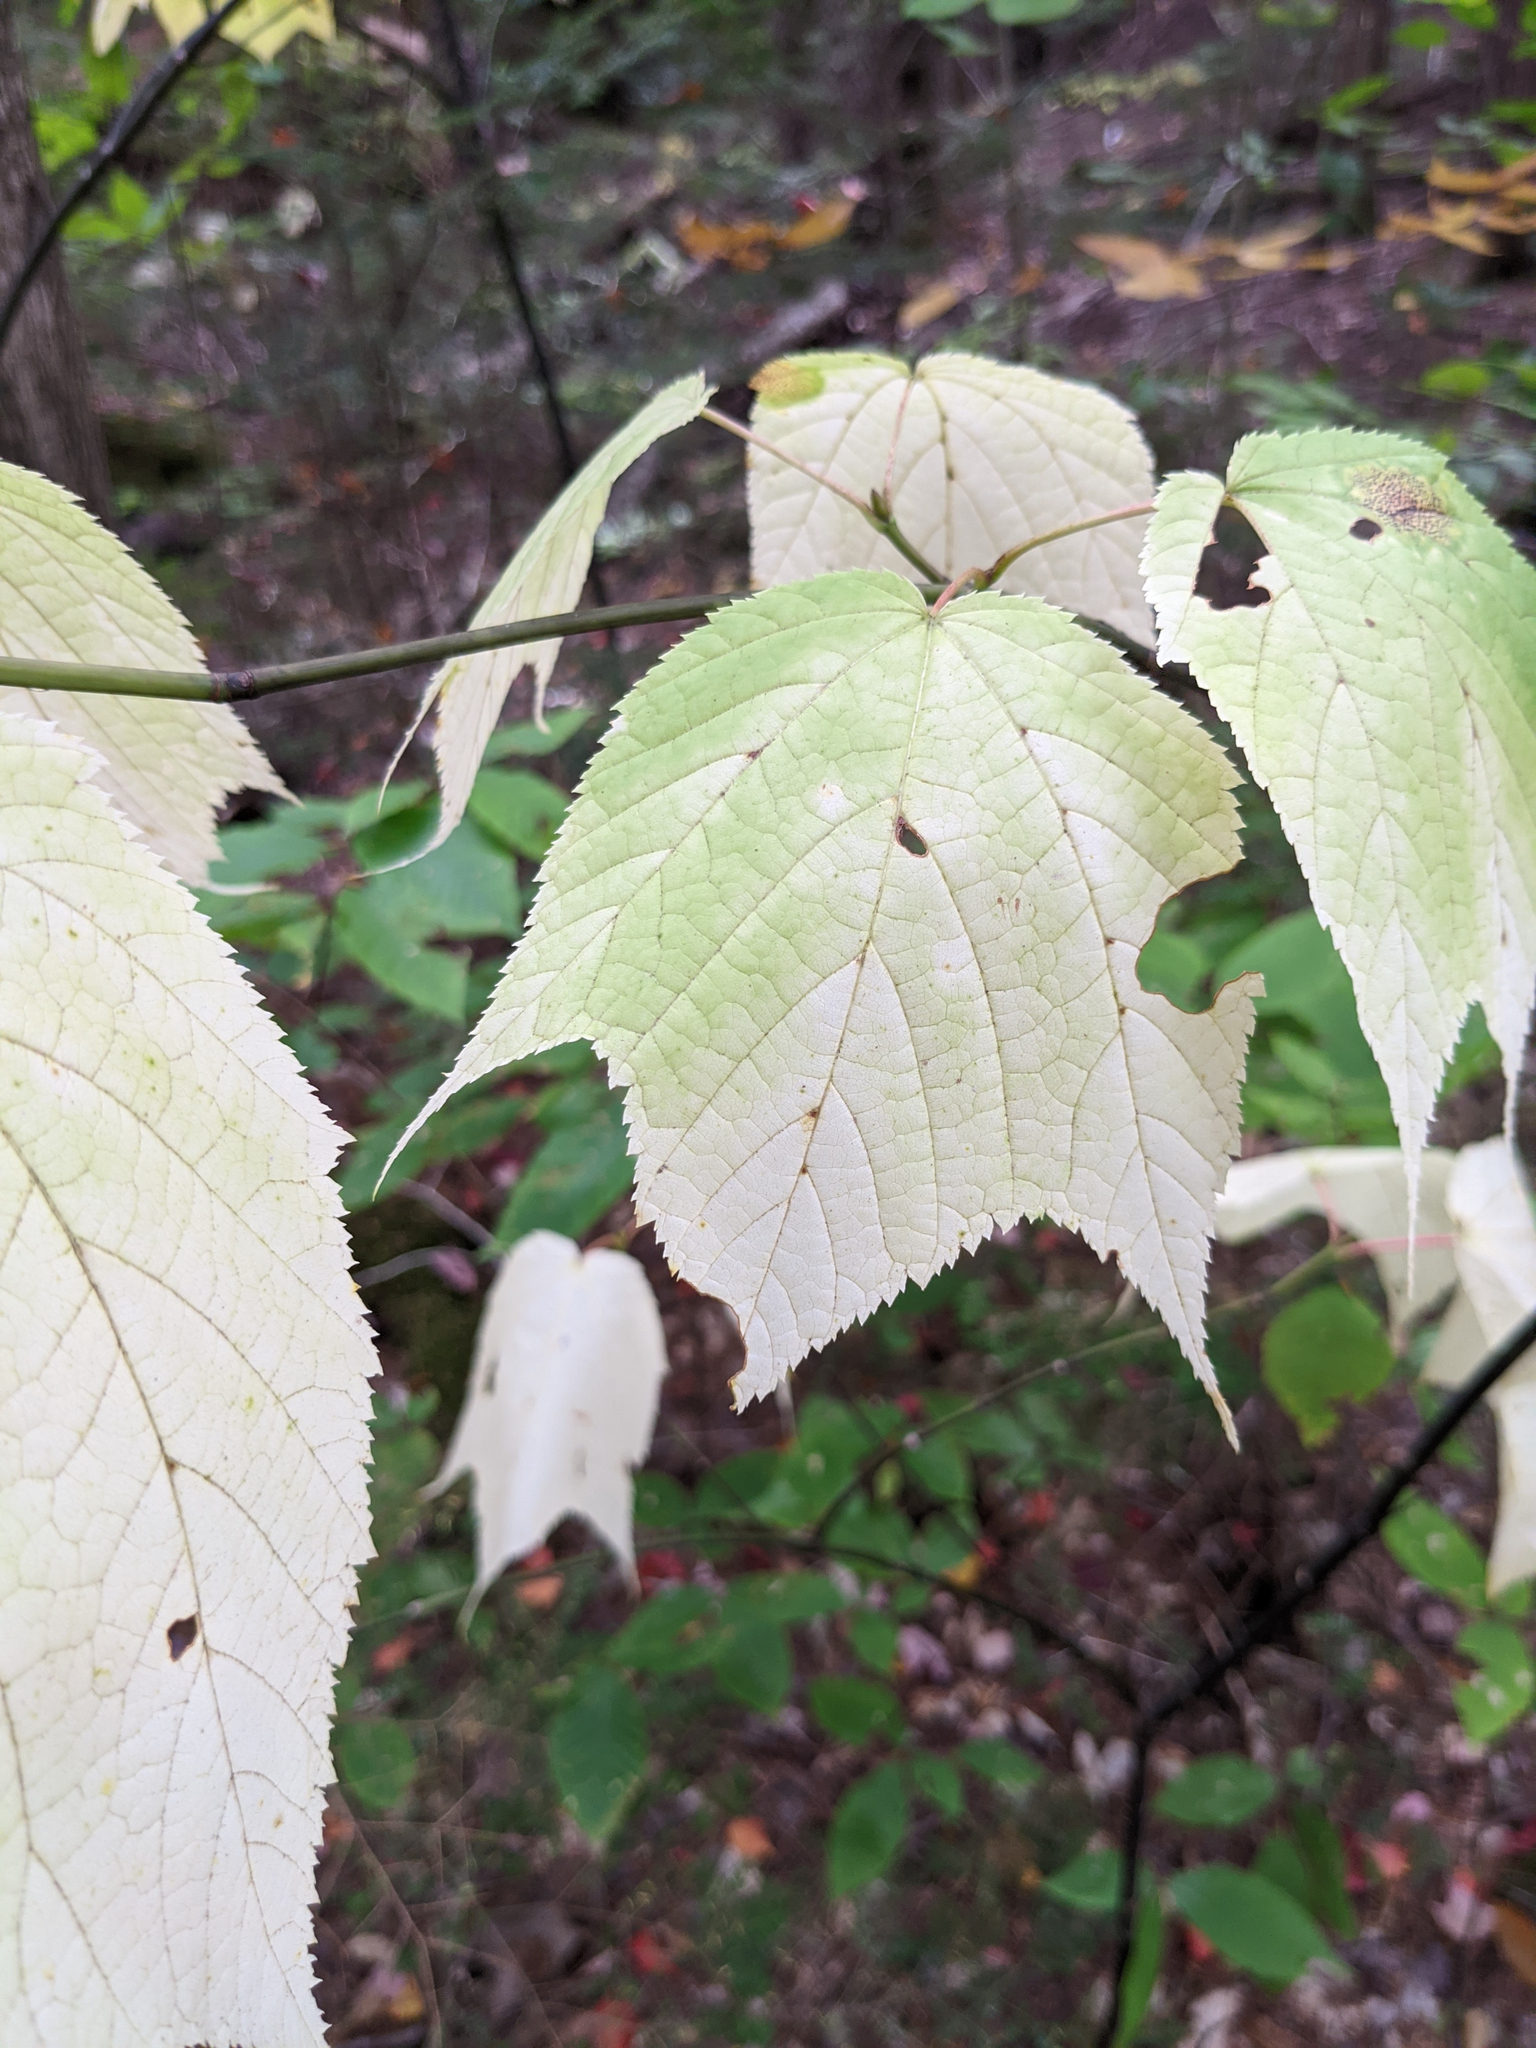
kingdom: Plantae
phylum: Tracheophyta
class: Magnoliopsida
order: Sapindales
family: Sapindaceae
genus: Acer
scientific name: Acer pensylvanicum
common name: Moosewood
